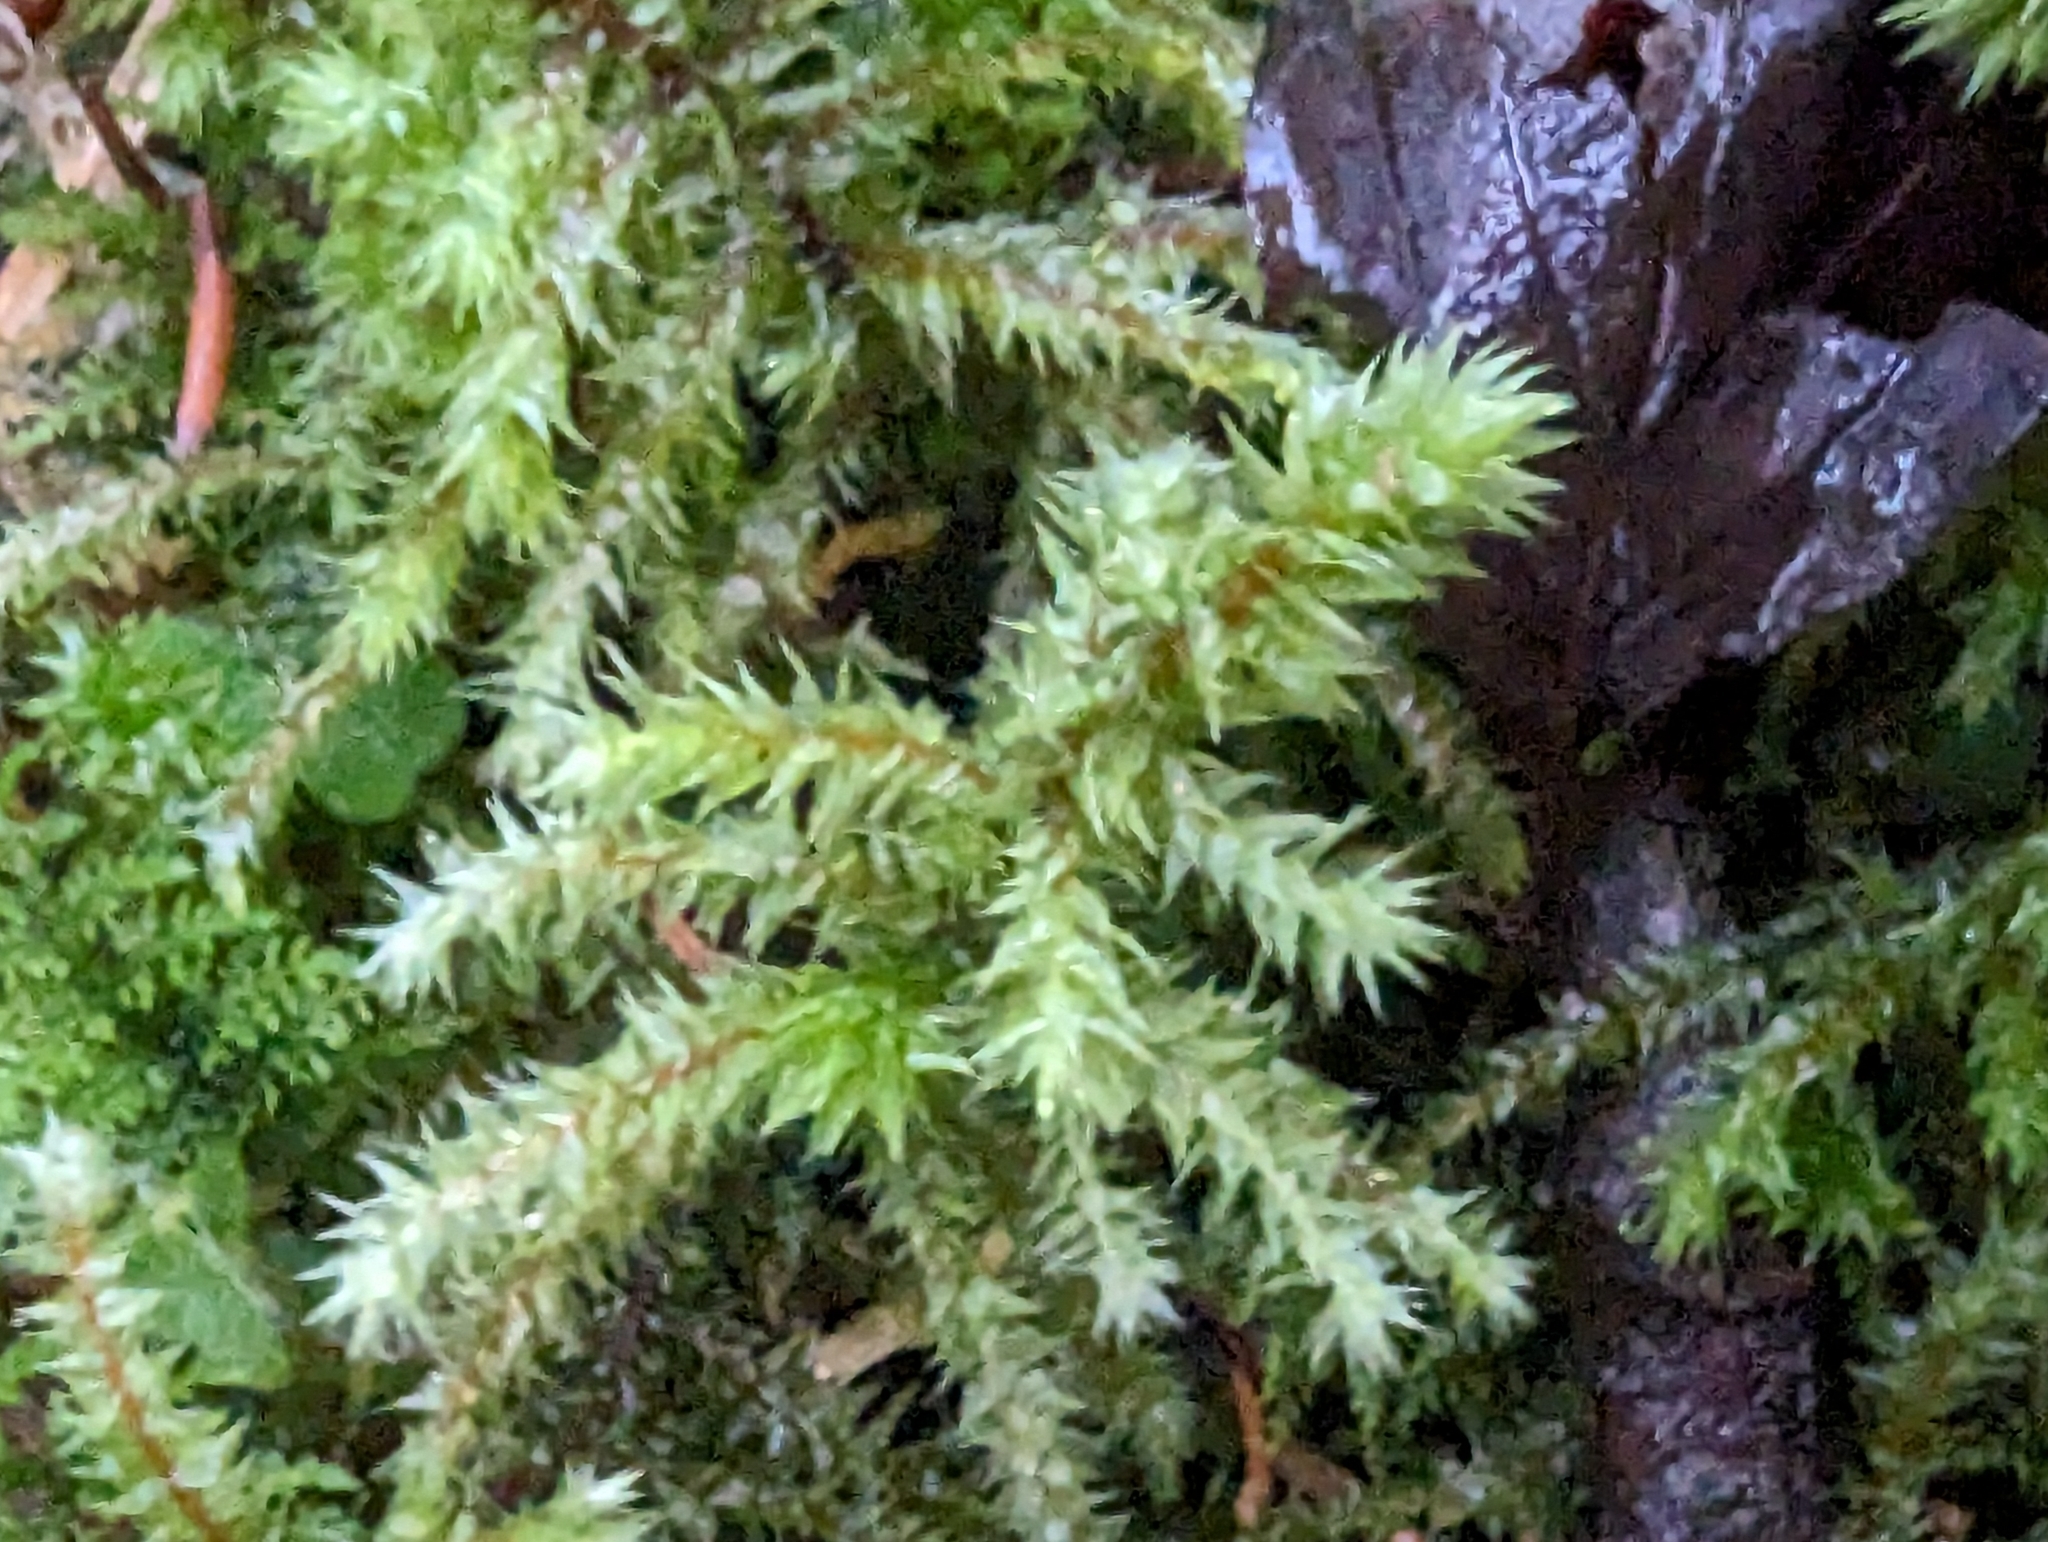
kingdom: Plantae
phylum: Bryophyta
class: Bryopsida
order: Hypnales
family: Hylocomiaceae
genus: Hylocomiadelphus
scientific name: Hylocomiadelphus triquetrus
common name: Rough goose neck moss
